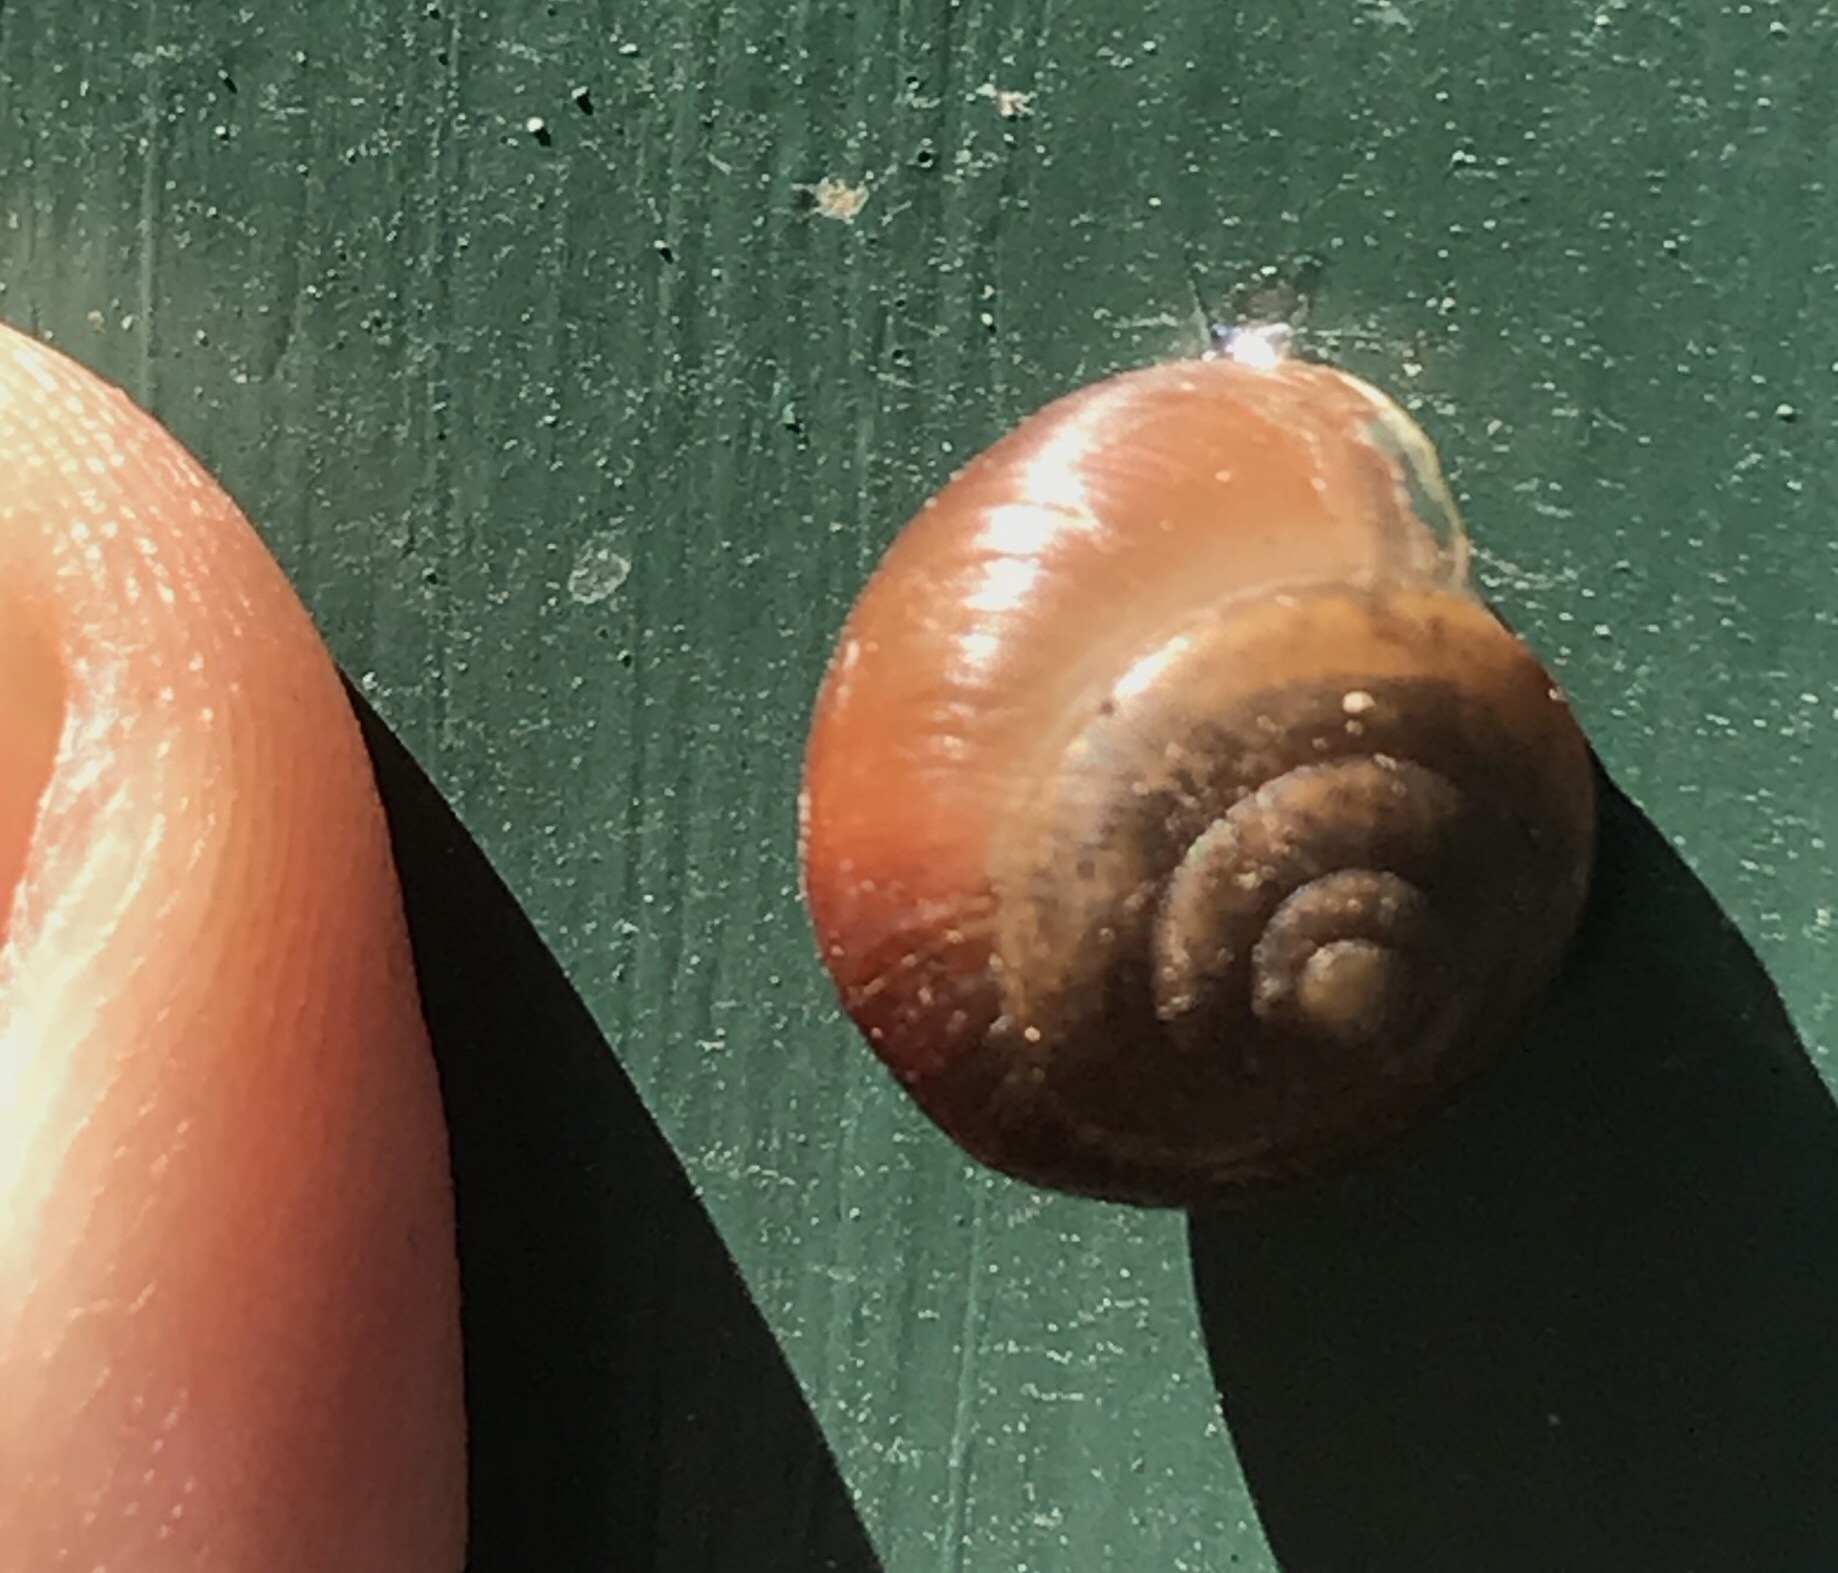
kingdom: Animalia
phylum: Mollusca
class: Gastropoda
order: Stylommatophora
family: Camaenidae
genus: Bradybaena
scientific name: Bradybaena similaris
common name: Asian trampsnail
